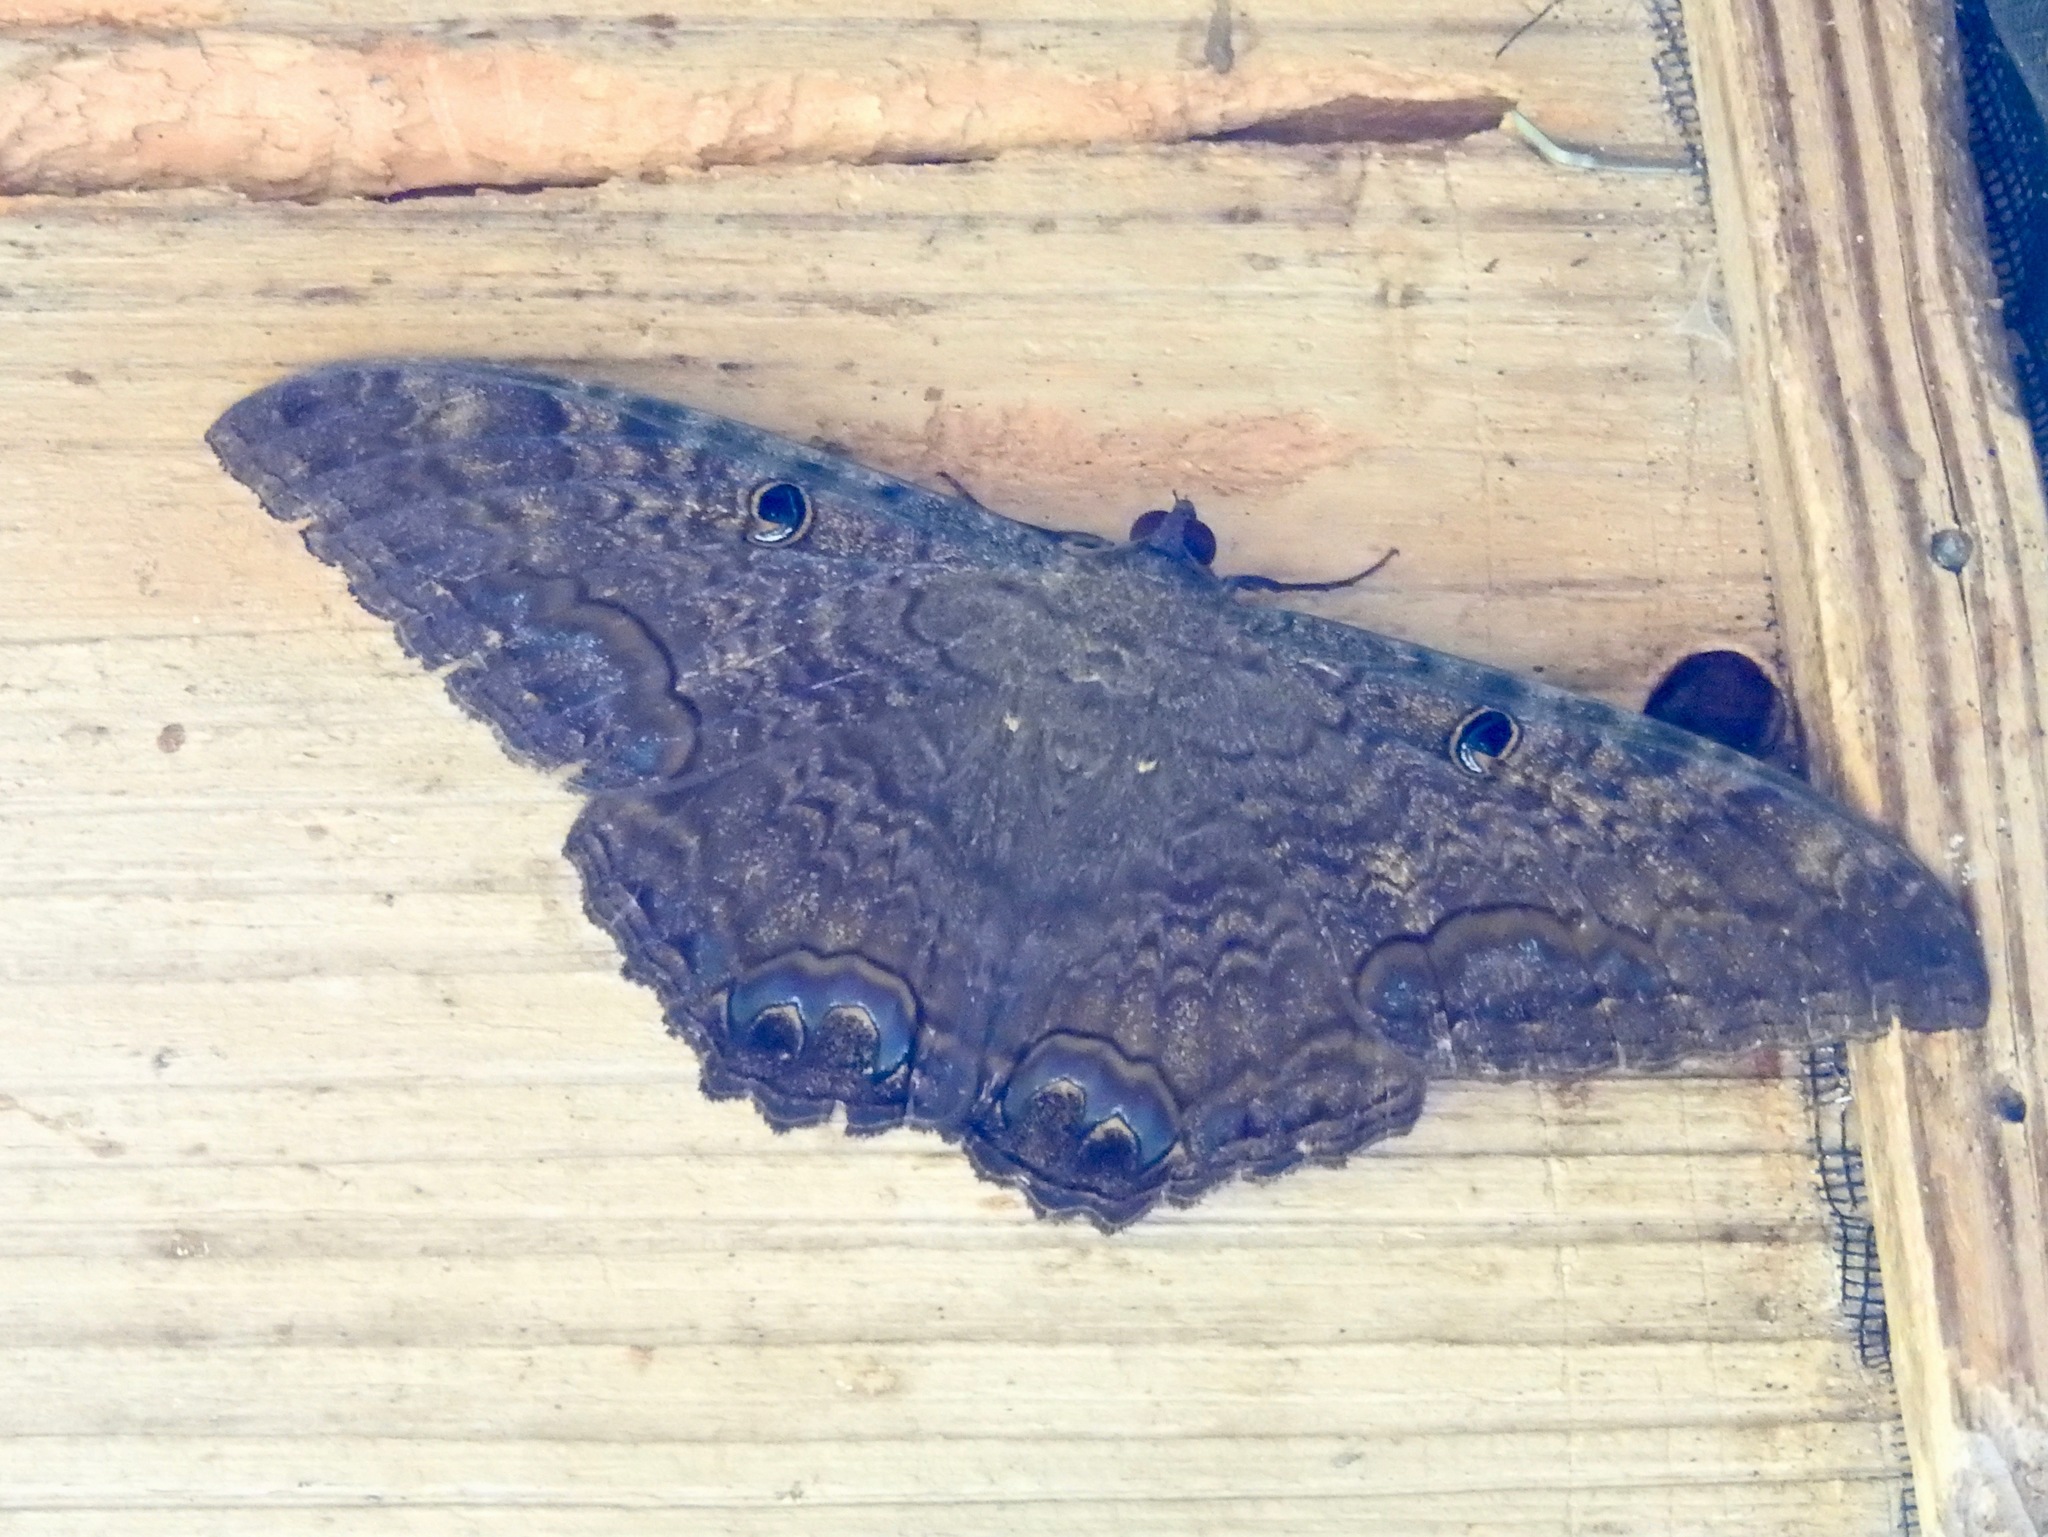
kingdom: Animalia
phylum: Arthropoda
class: Insecta
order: Lepidoptera
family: Erebidae
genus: Ascalapha
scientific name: Ascalapha odorata
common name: Black witch
